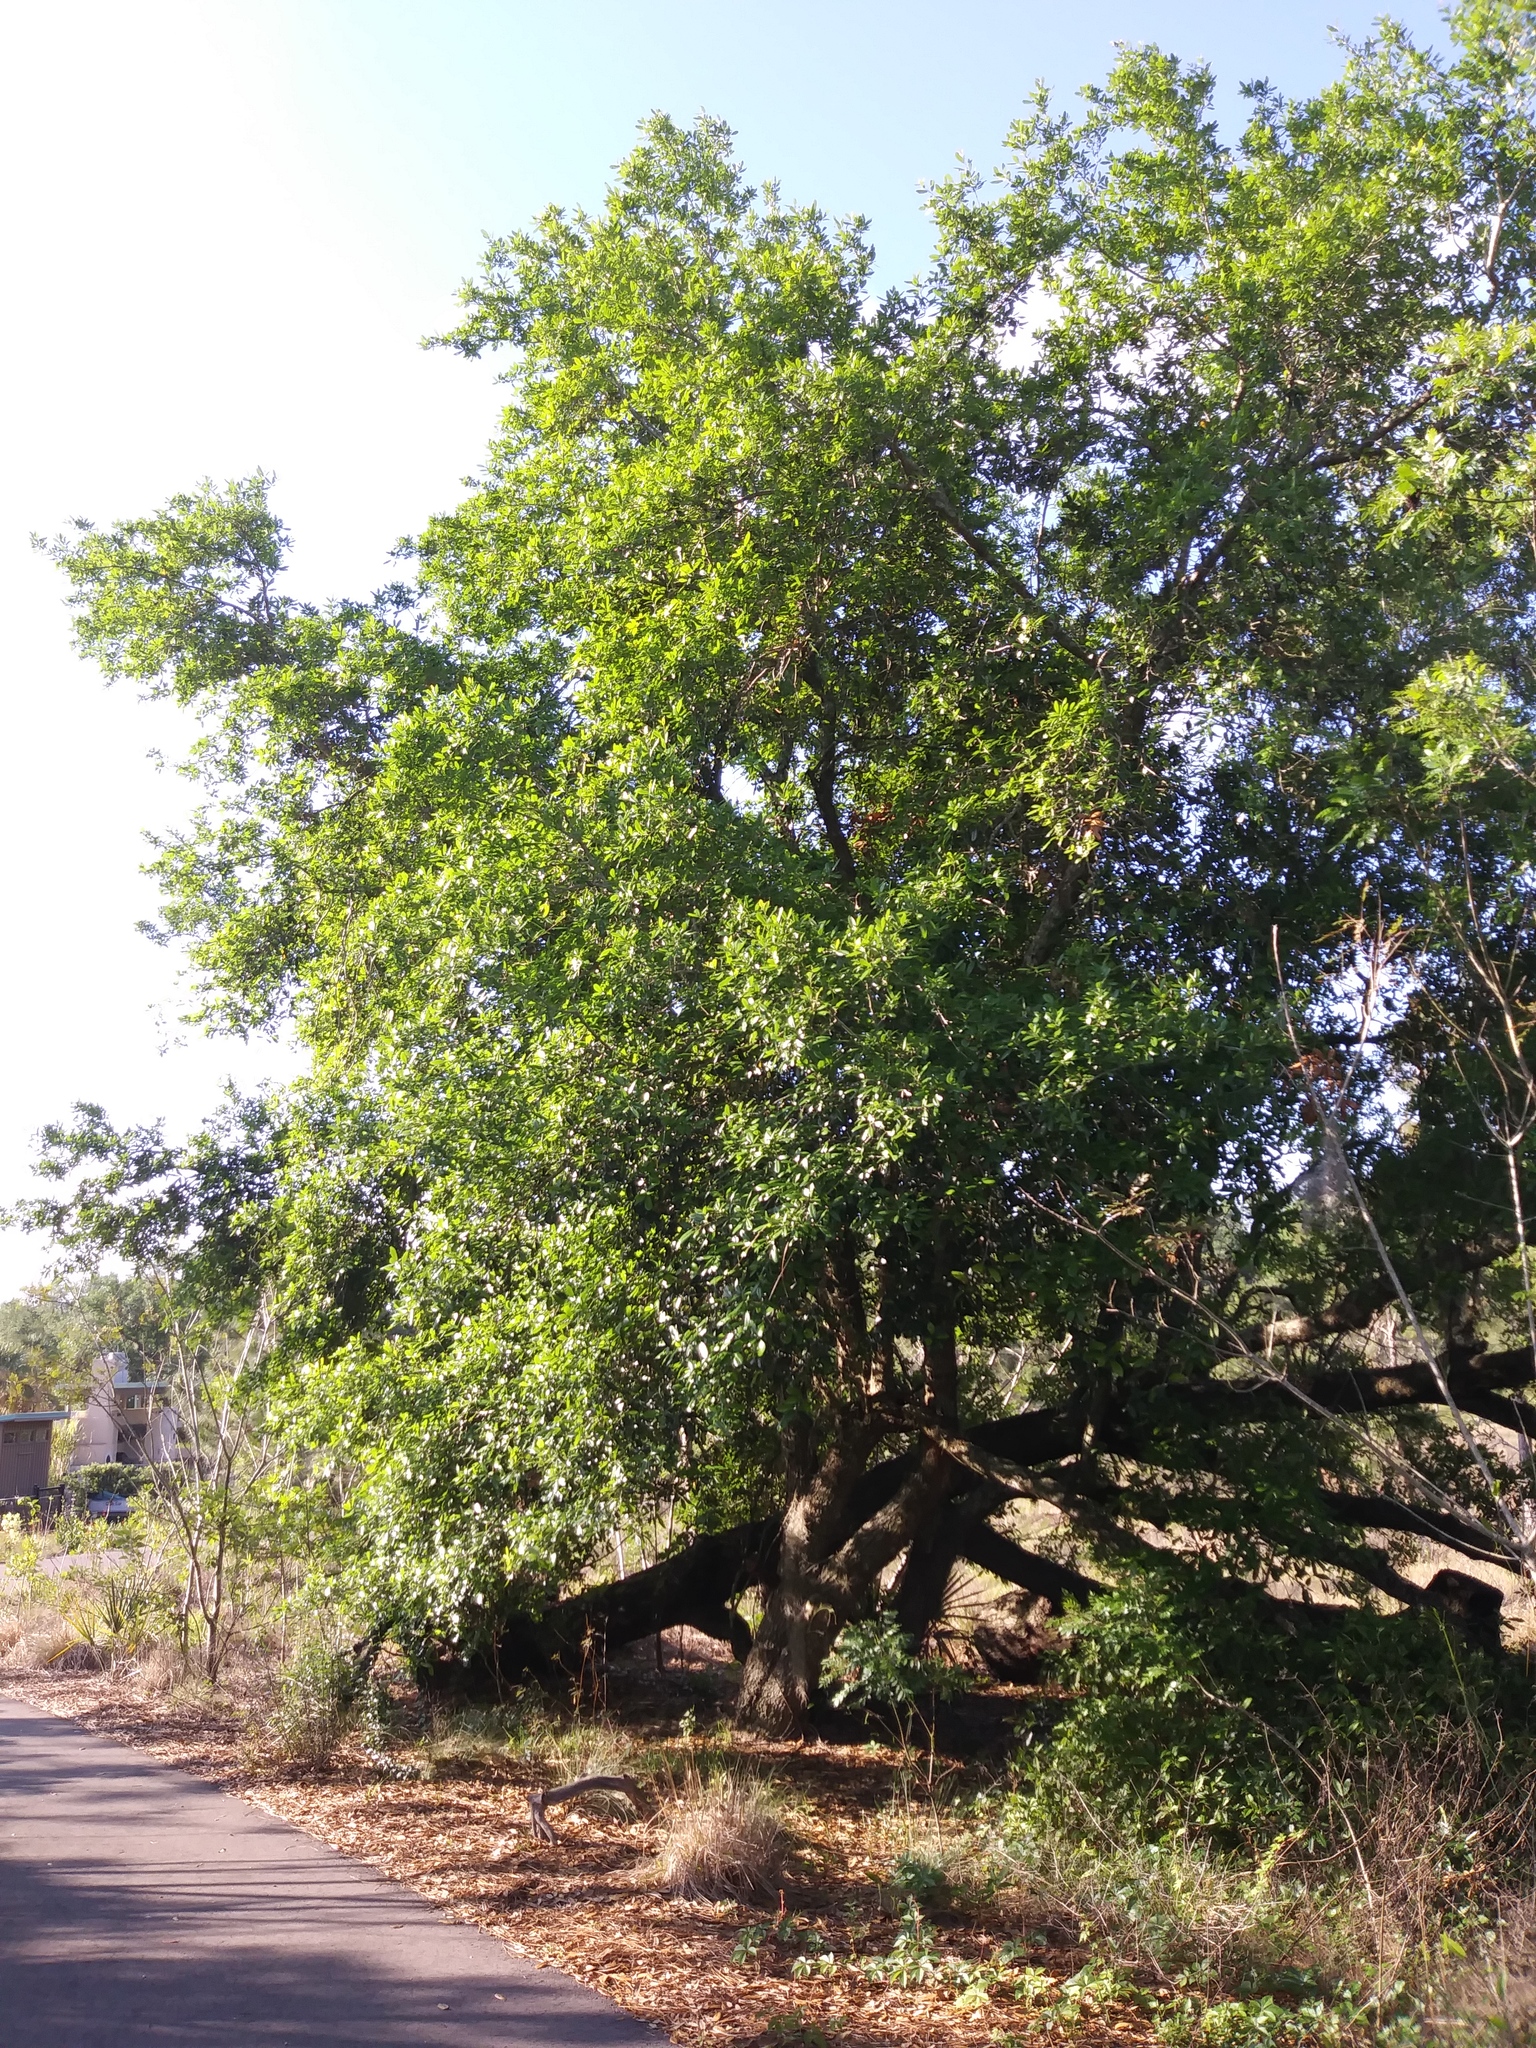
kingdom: Plantae
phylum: Tracheophyta
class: Magnoliopsida
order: Fagales
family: Fagaceae
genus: Quercus
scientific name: Quercus virginiana
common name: Southern live oak
